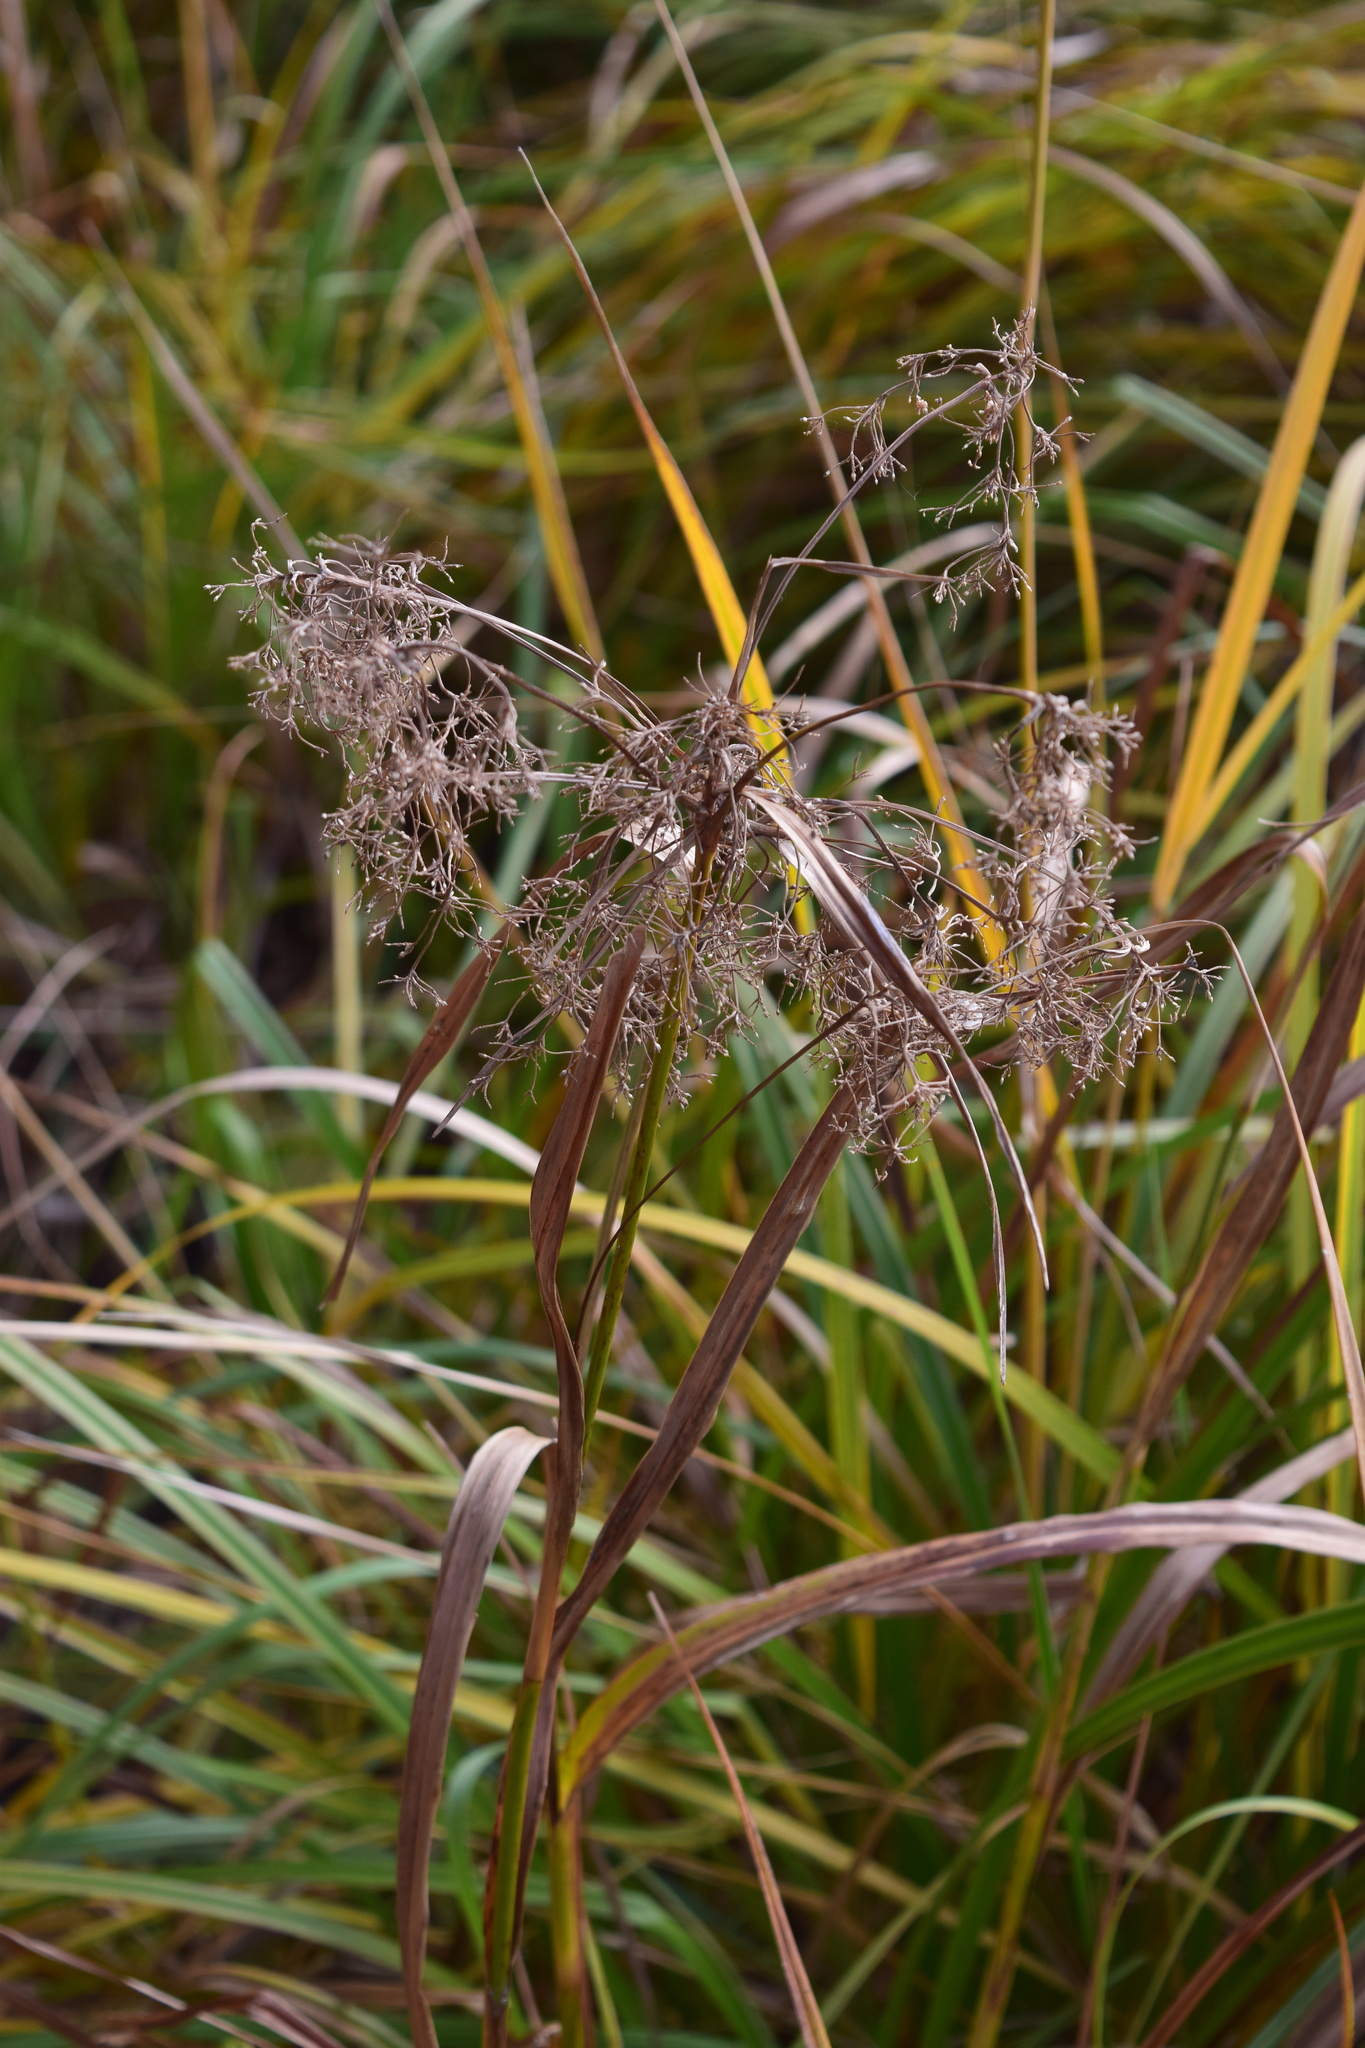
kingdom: Plantae
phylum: Tracheophyta
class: Liliopsida
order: Poales
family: Cyperaceae
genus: Scirpus
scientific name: Scirpus sylvaticus
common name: Wood club-rush
